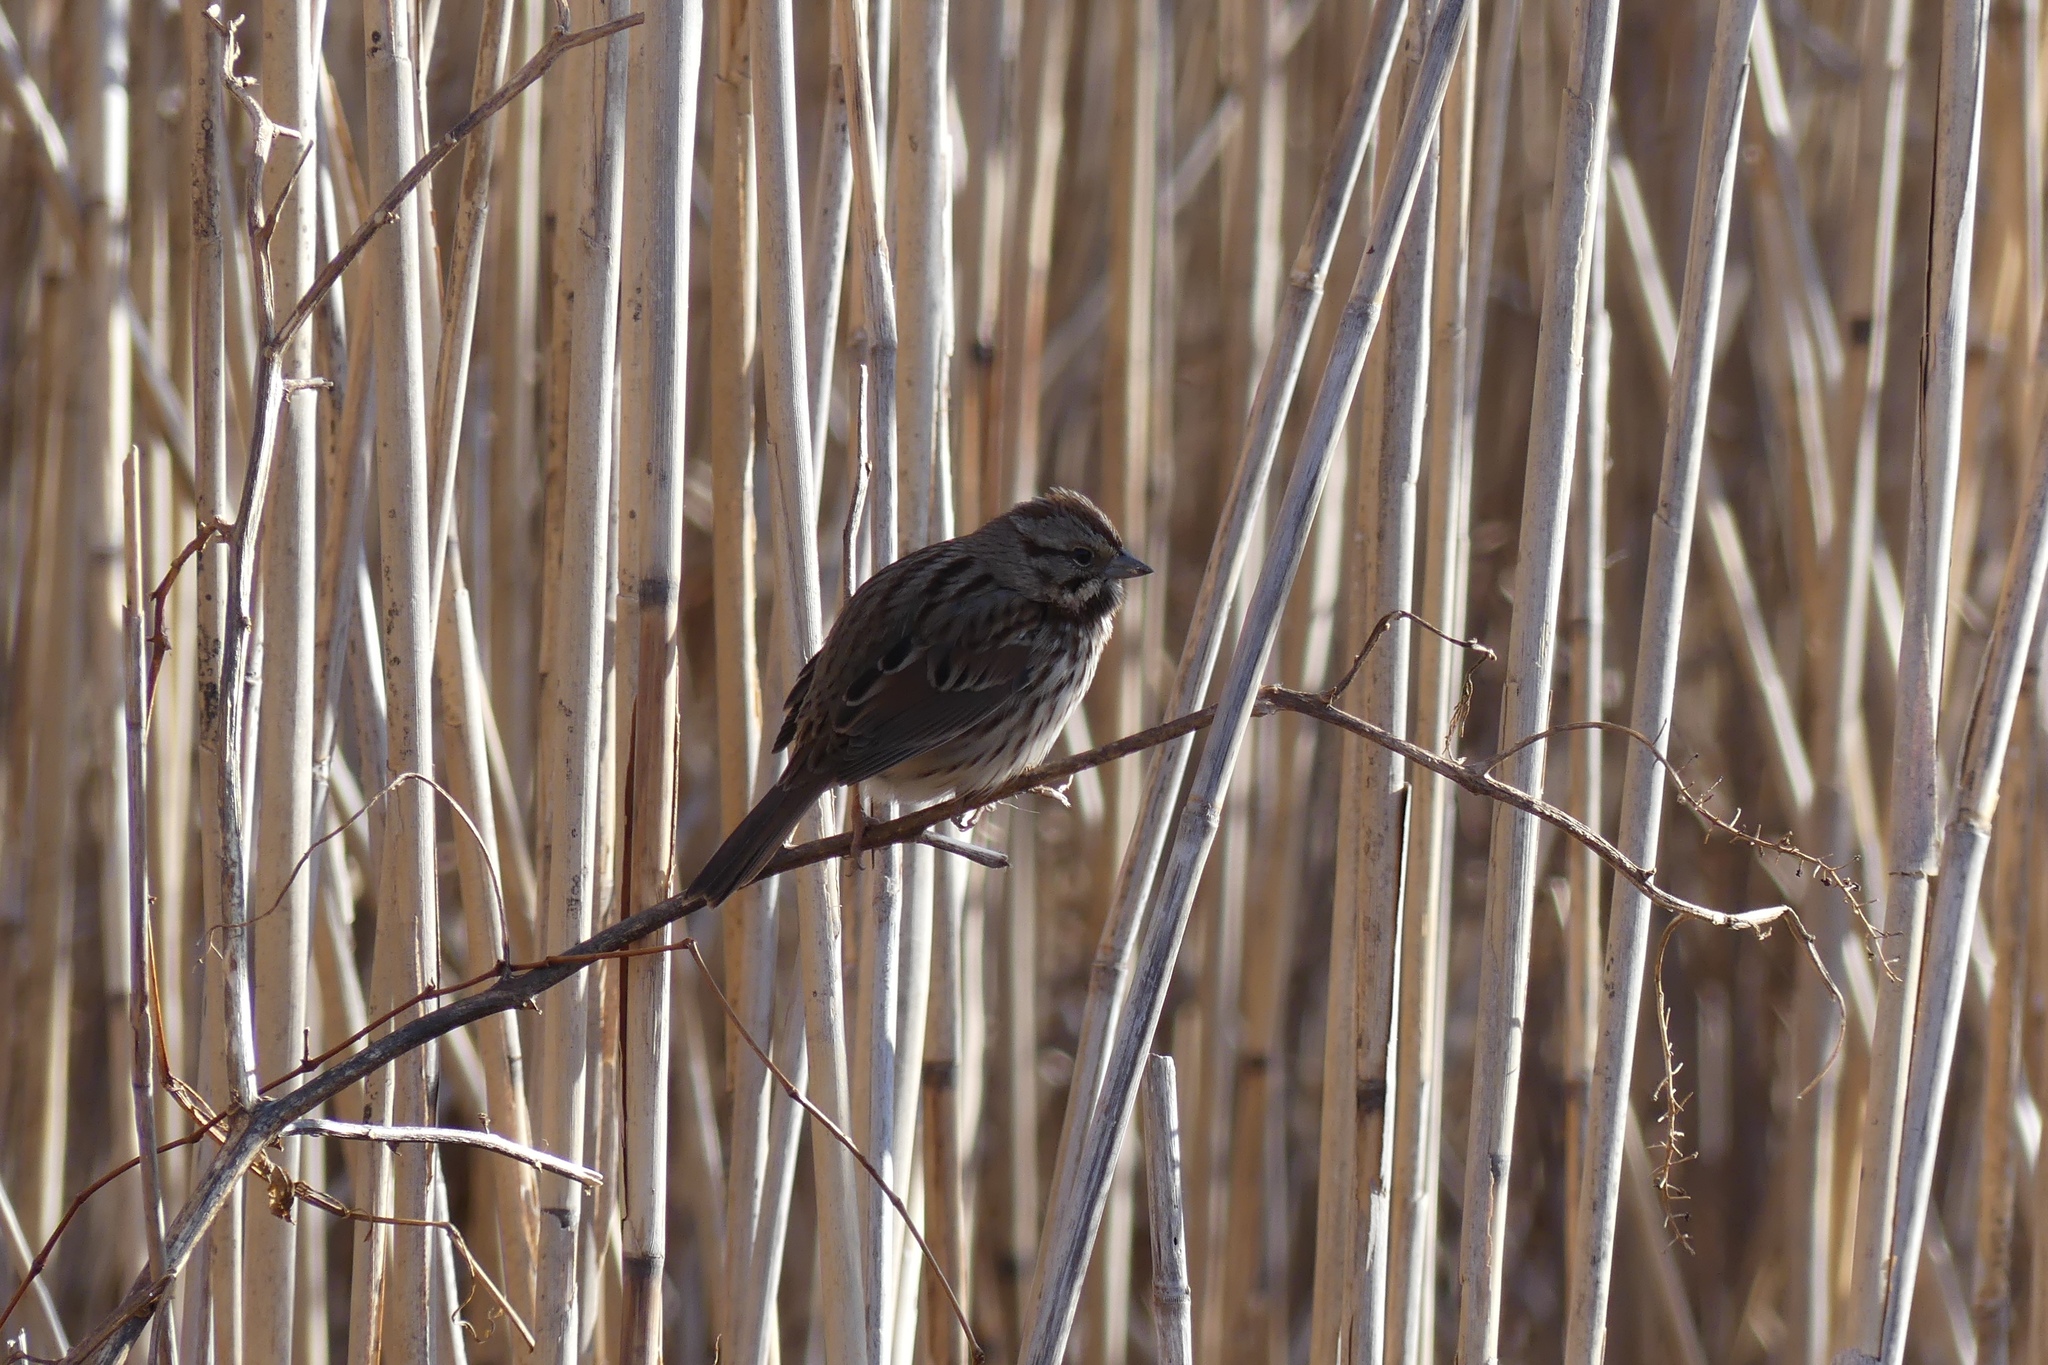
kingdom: Animalia
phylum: Chordata
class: Aves
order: Passeriformes
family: Passerellidae
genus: Melospiza
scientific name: Melospiza melodia
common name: Song sparrow
